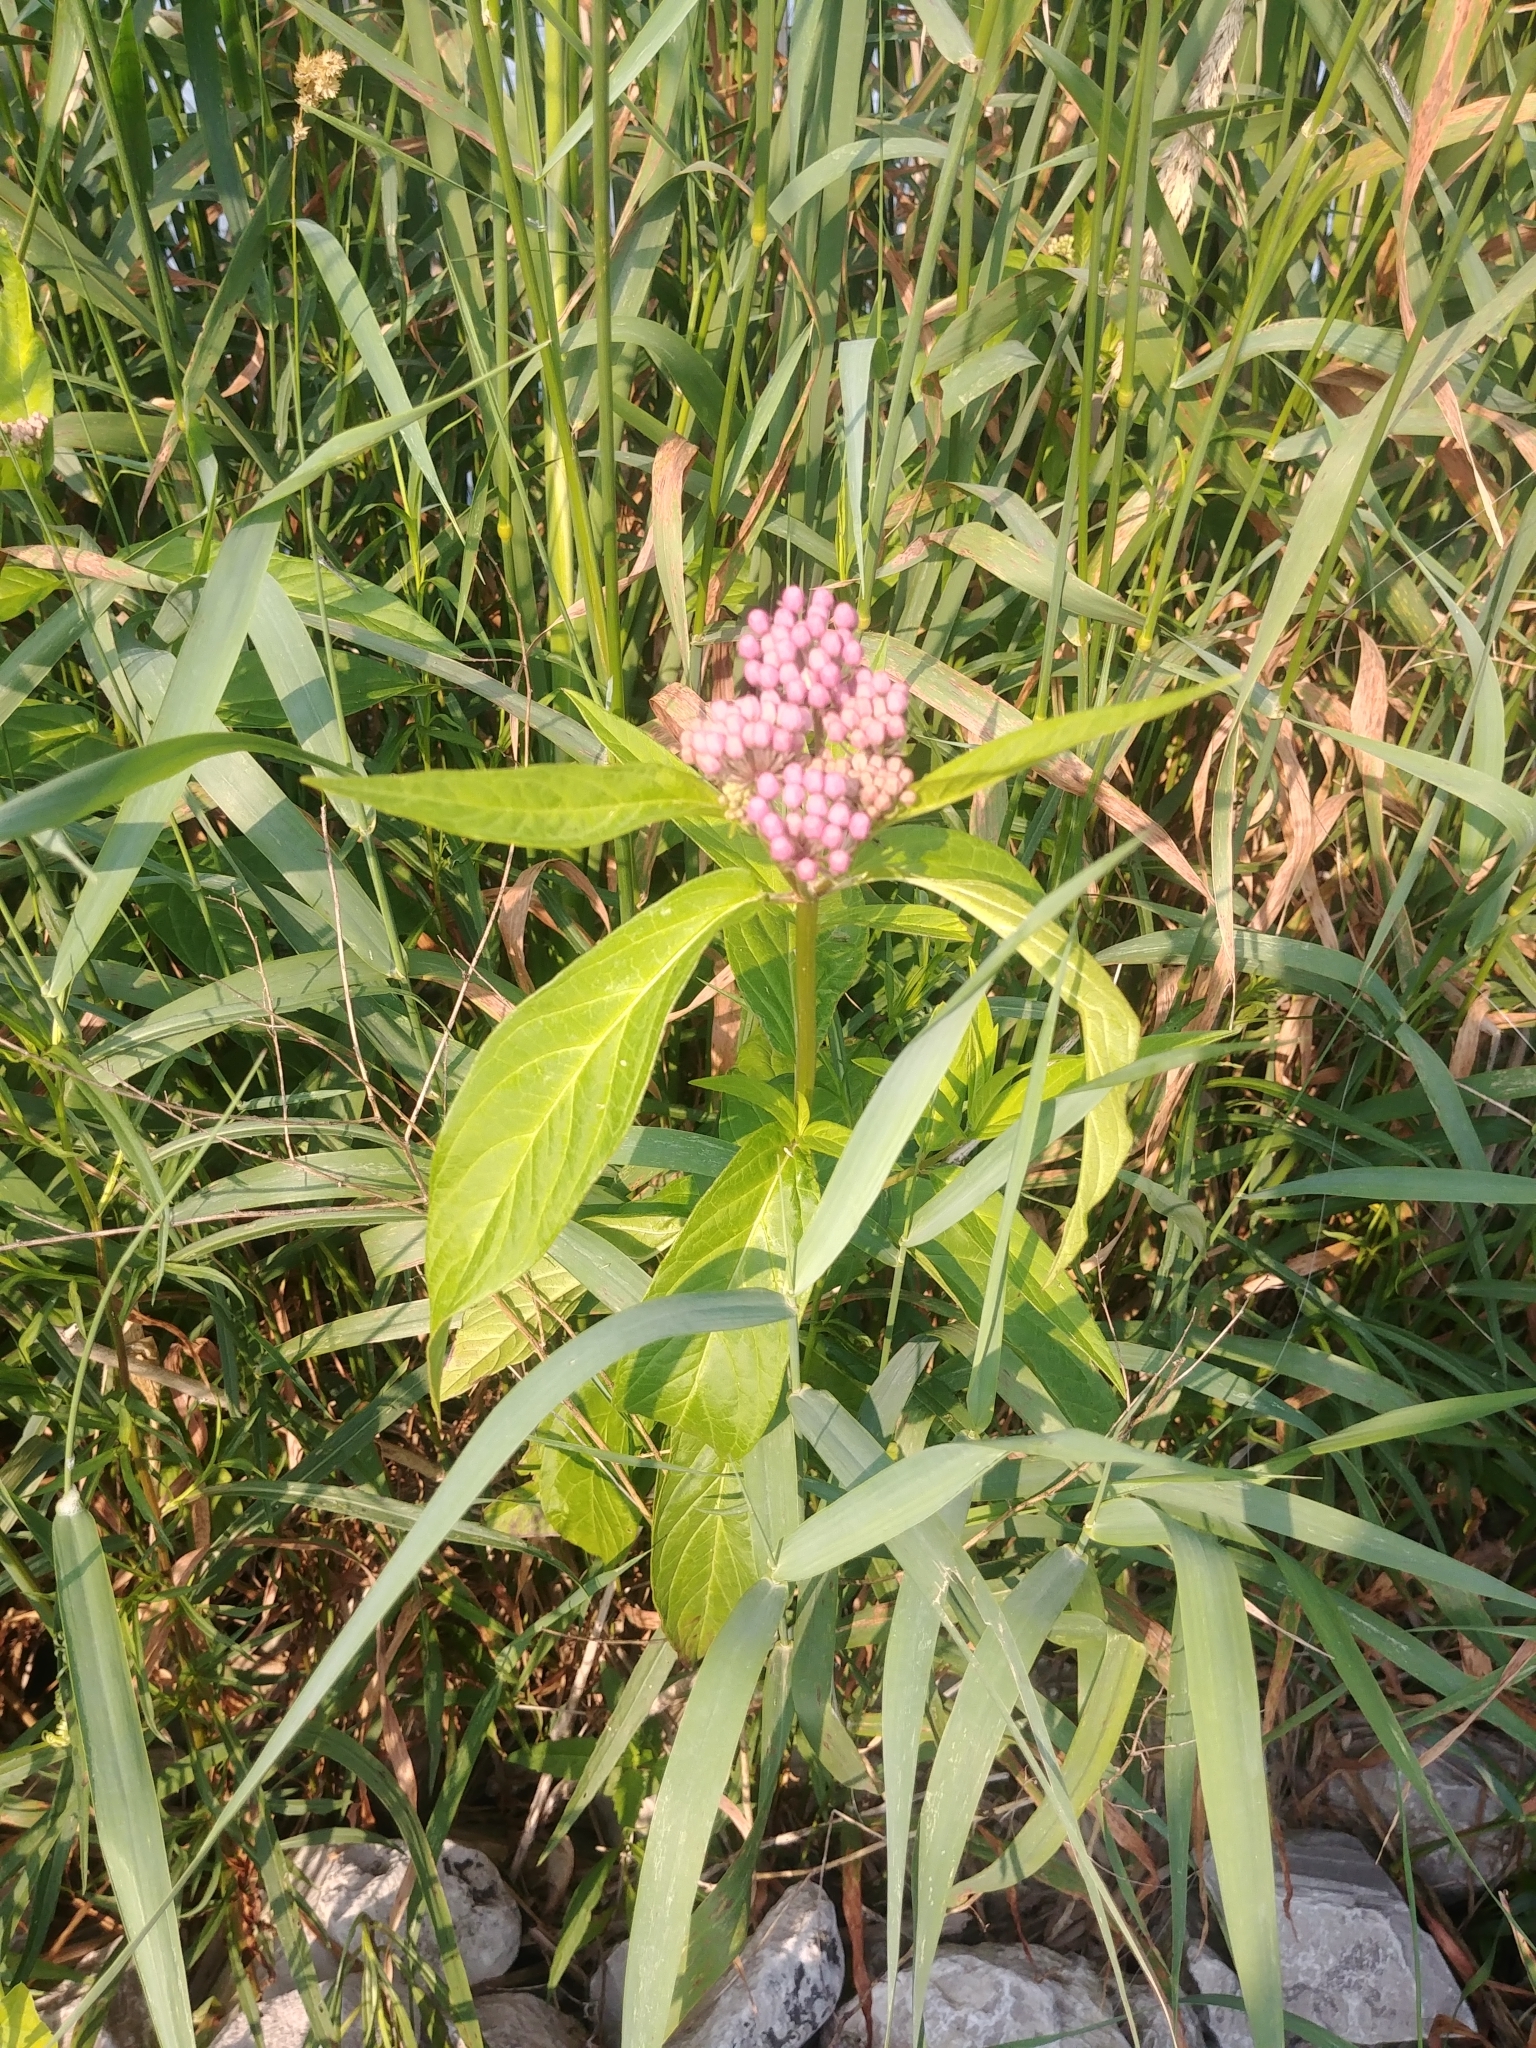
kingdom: Plantae
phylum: Tracheophyta
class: Magnoliopsida
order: Gentianales
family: Apocynaceae
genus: Asclepias
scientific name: Asclepias incarnata
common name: Swamp milkweed
